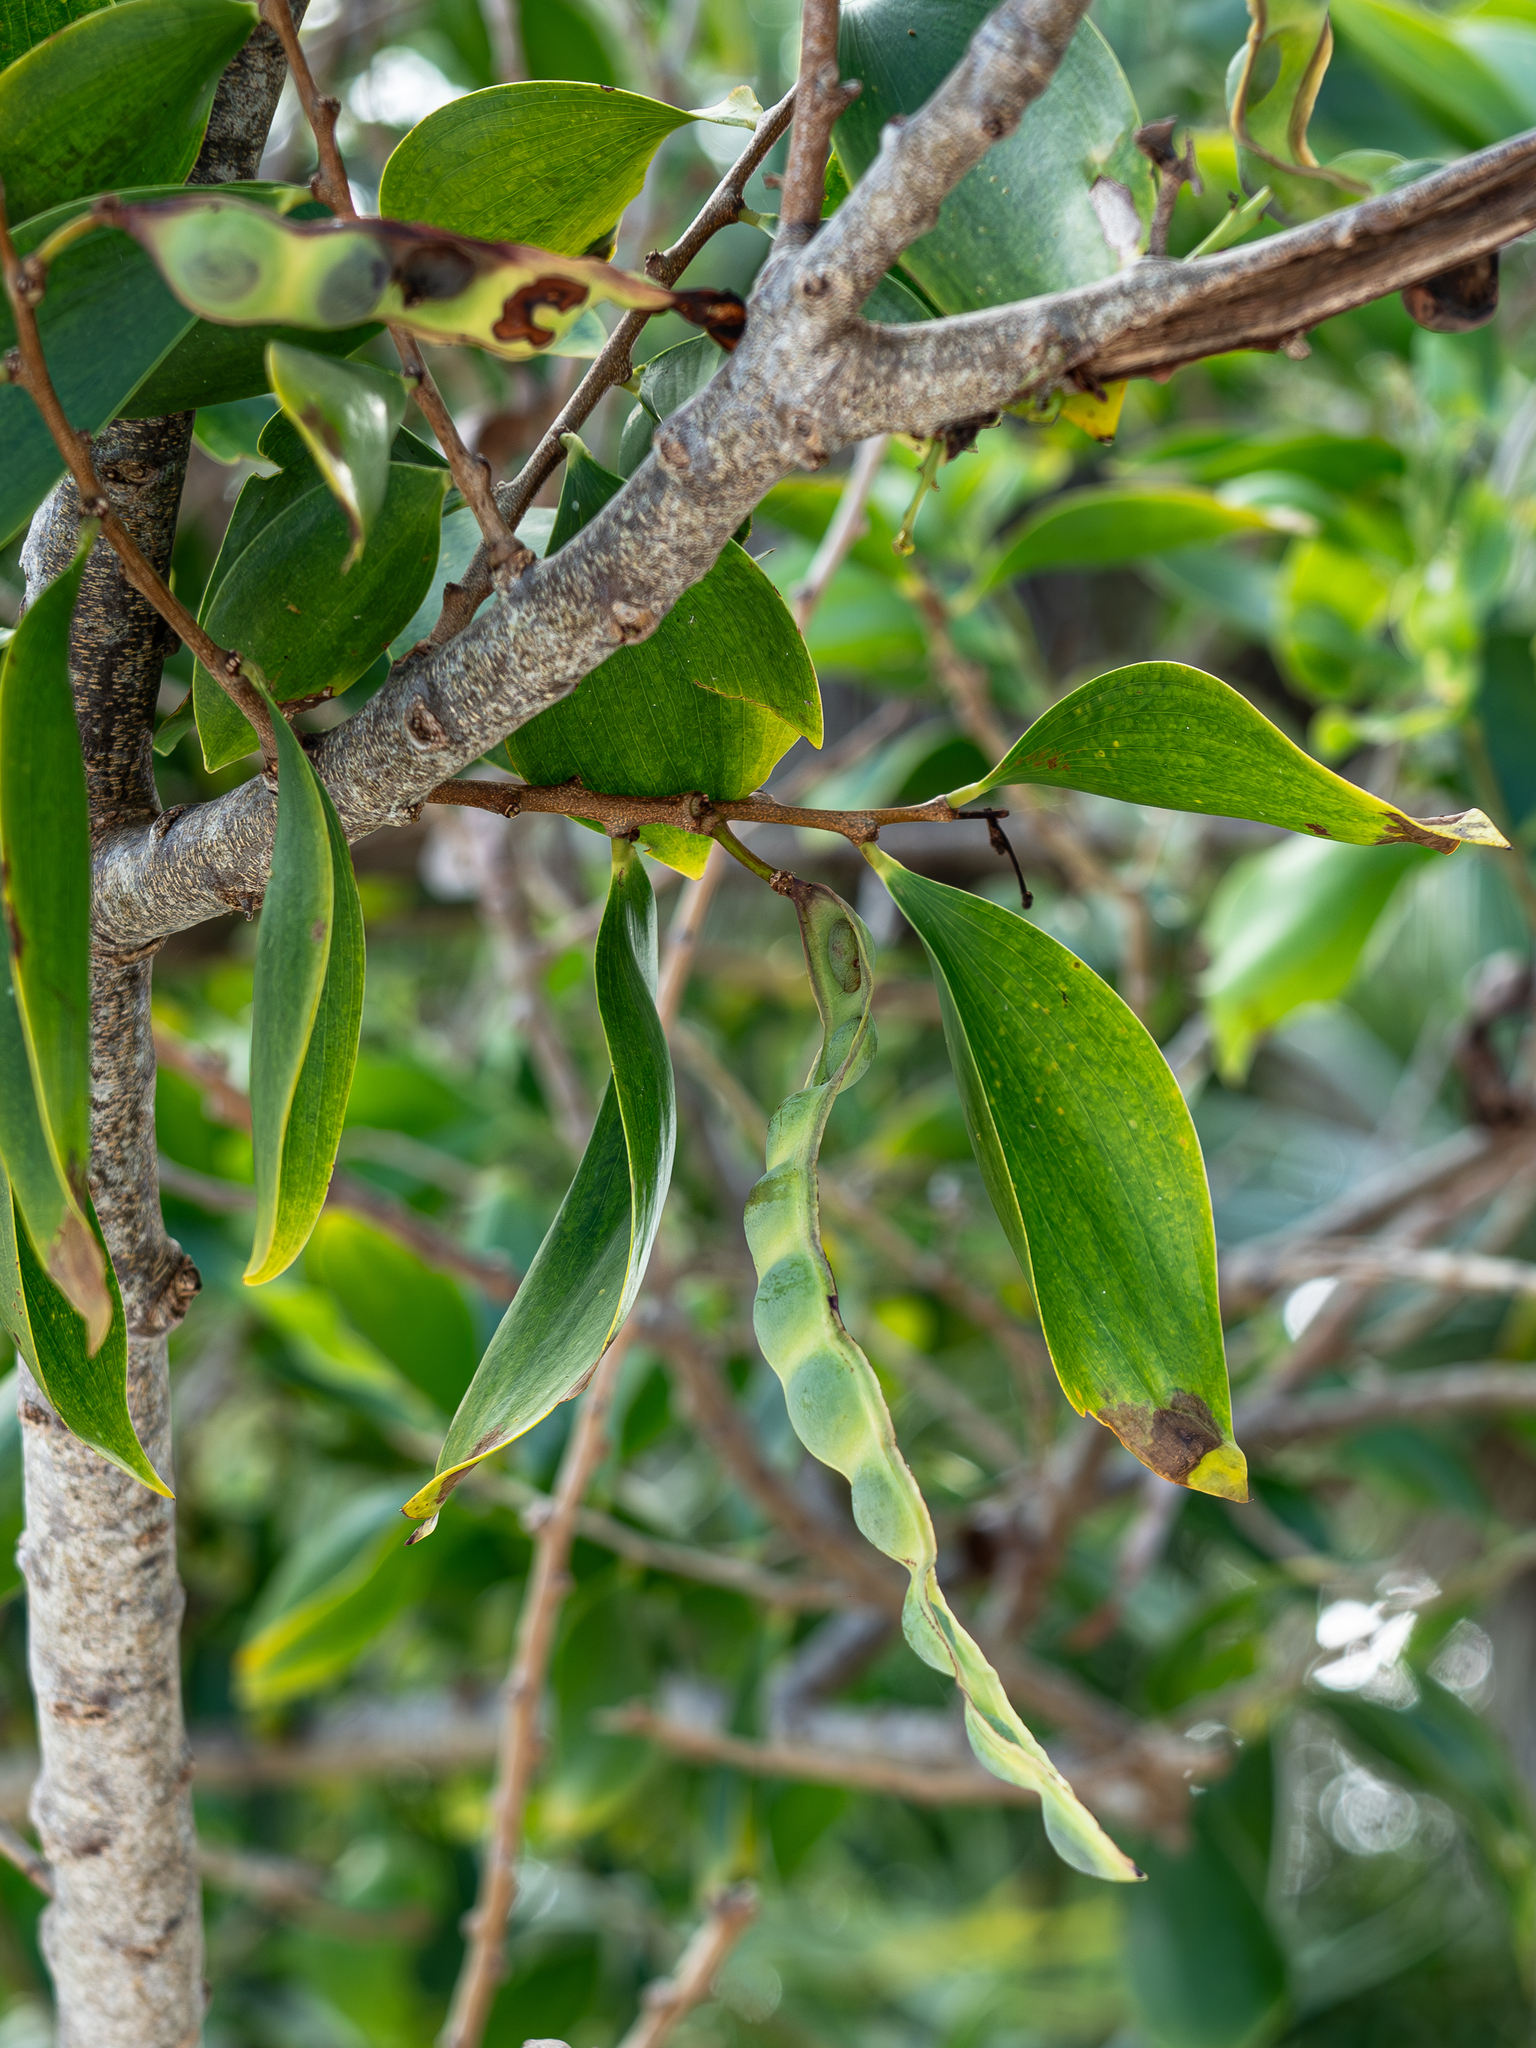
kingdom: Plantae
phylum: Tracheophyta
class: Magnoliopsida
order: Fabales
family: Fabaceae
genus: Acacia
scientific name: Acacia simplex
